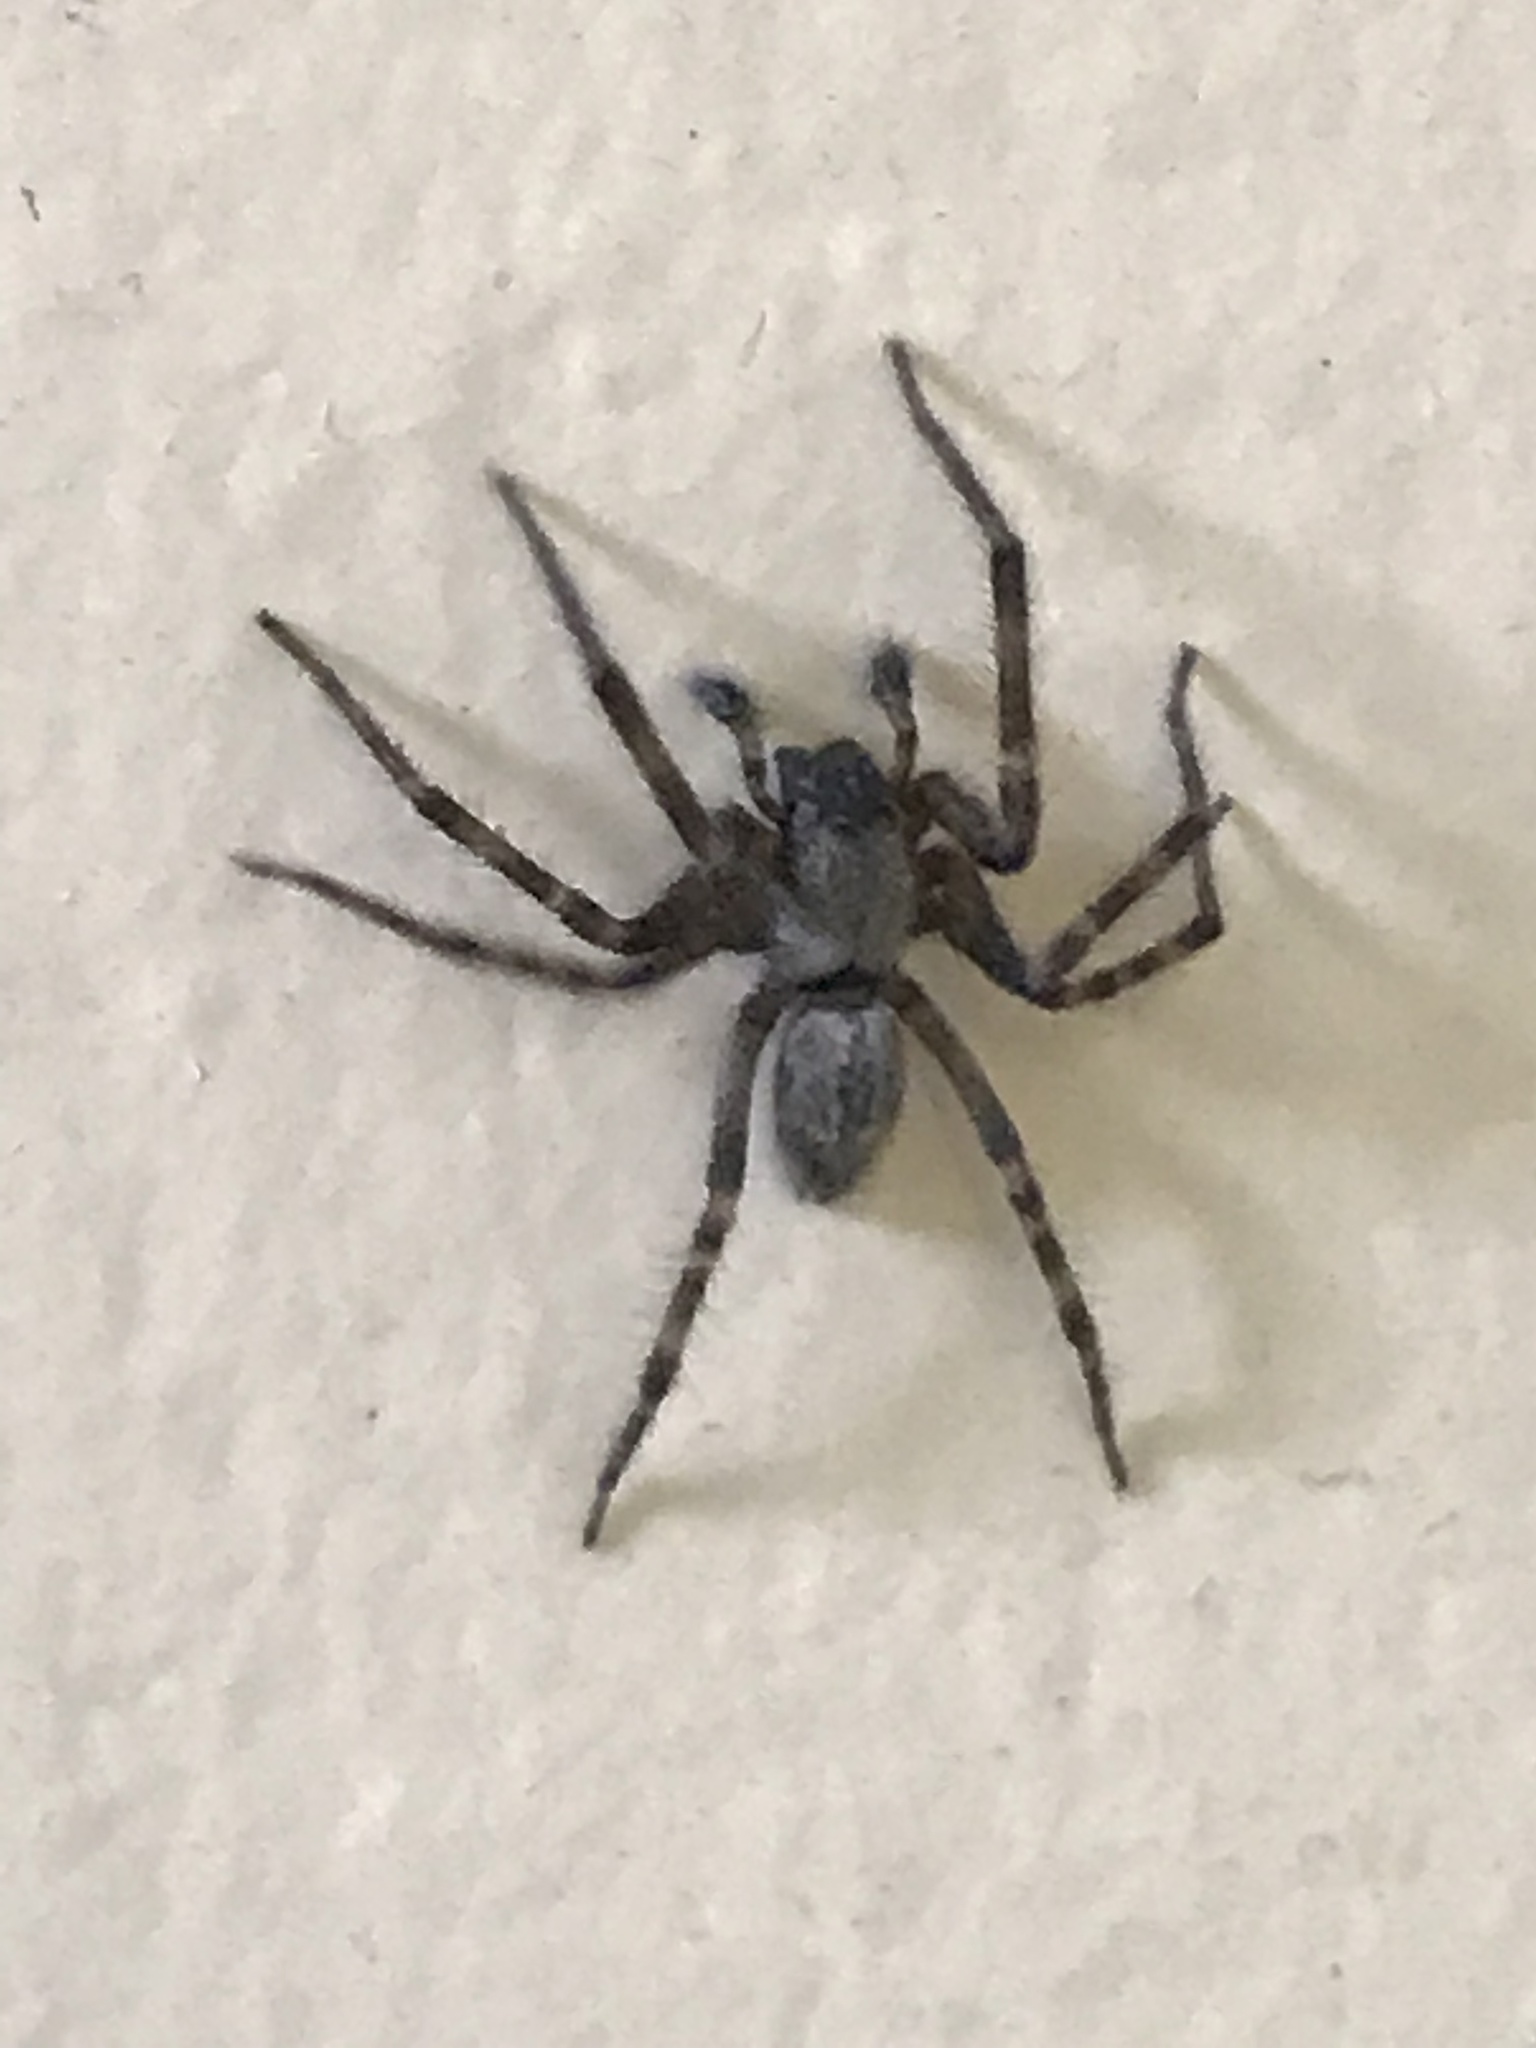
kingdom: Animalia
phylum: Arthropoda
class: Arachnida
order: Araneae
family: Desidae
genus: Badumna
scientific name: Badumna longinqua
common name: Gray house spider
